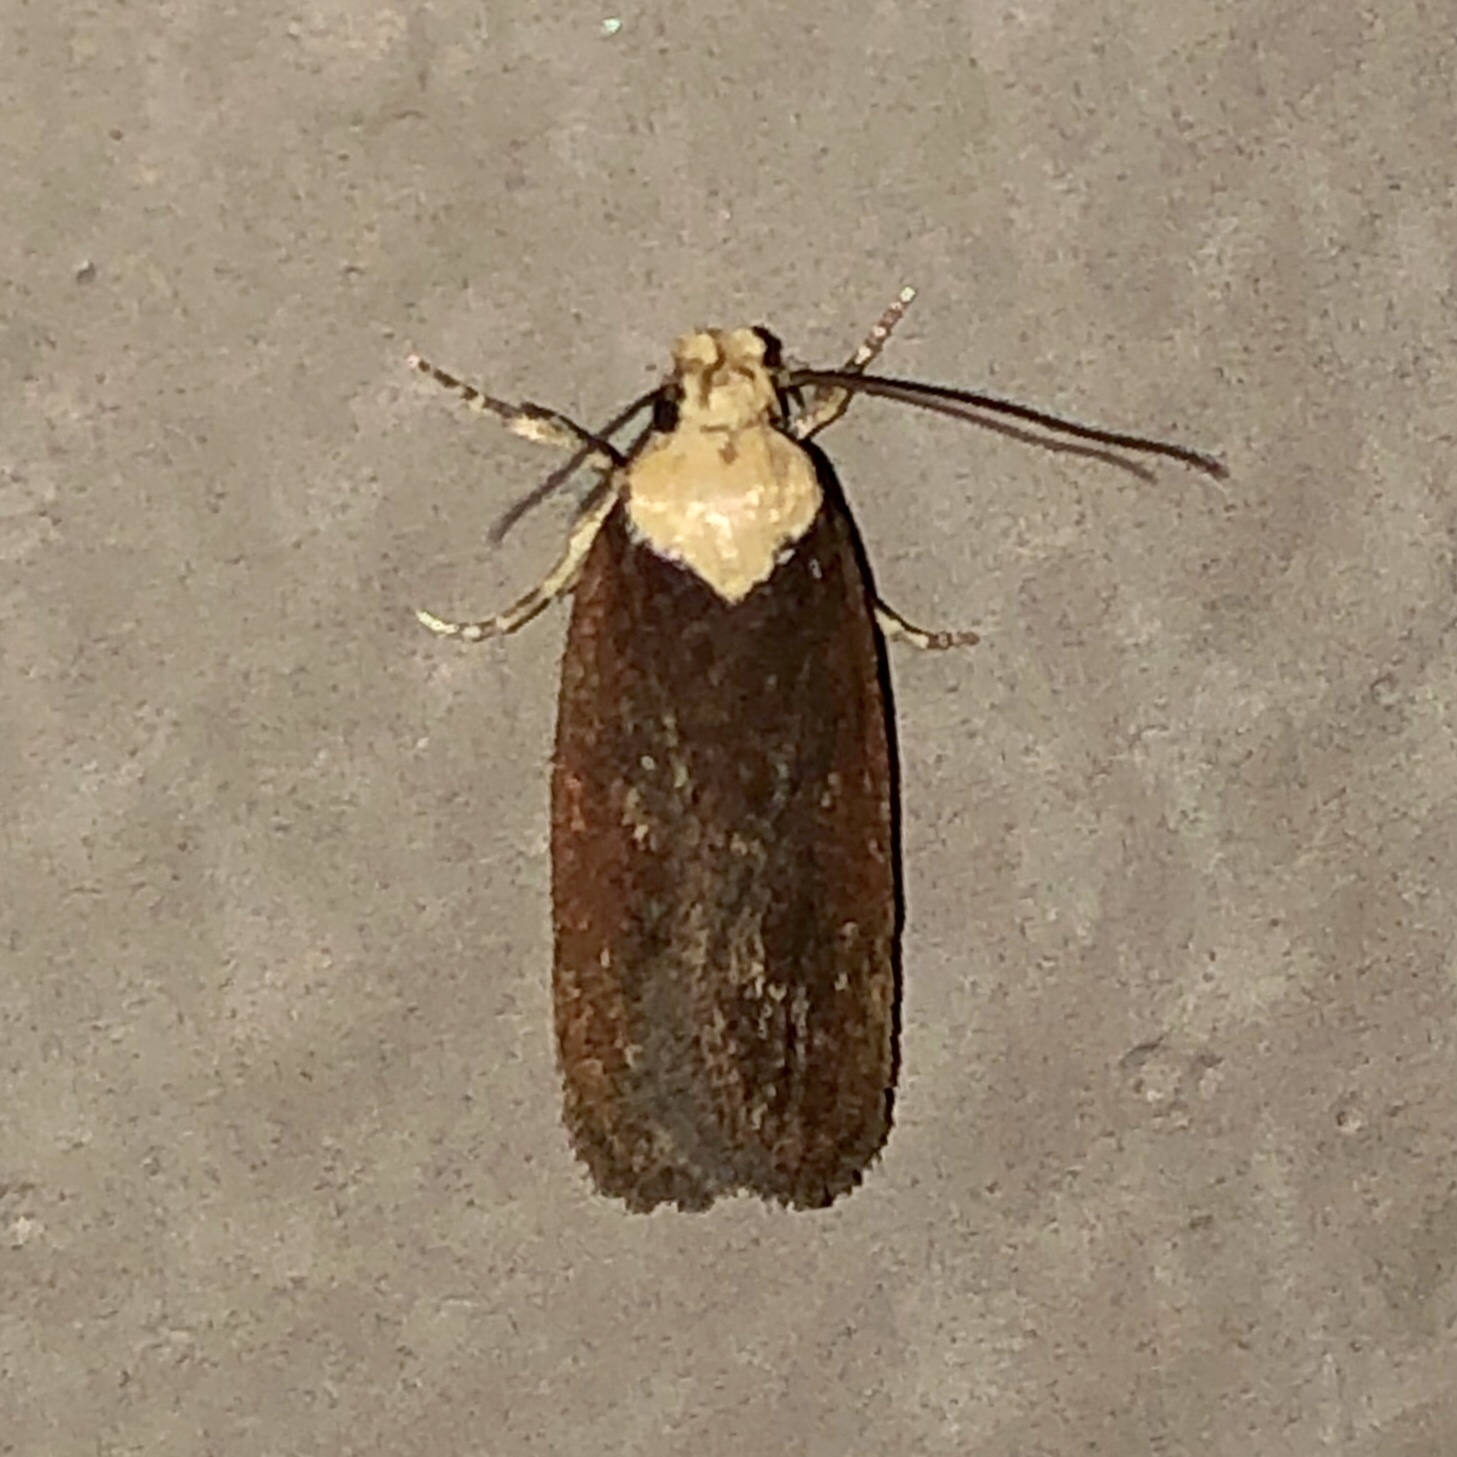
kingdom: Animalia
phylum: Arthropoda
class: Insecta
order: Lepidoptera
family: Depressariidae
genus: Depressaria
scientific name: Depressaria depressana
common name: Lost flat-body
